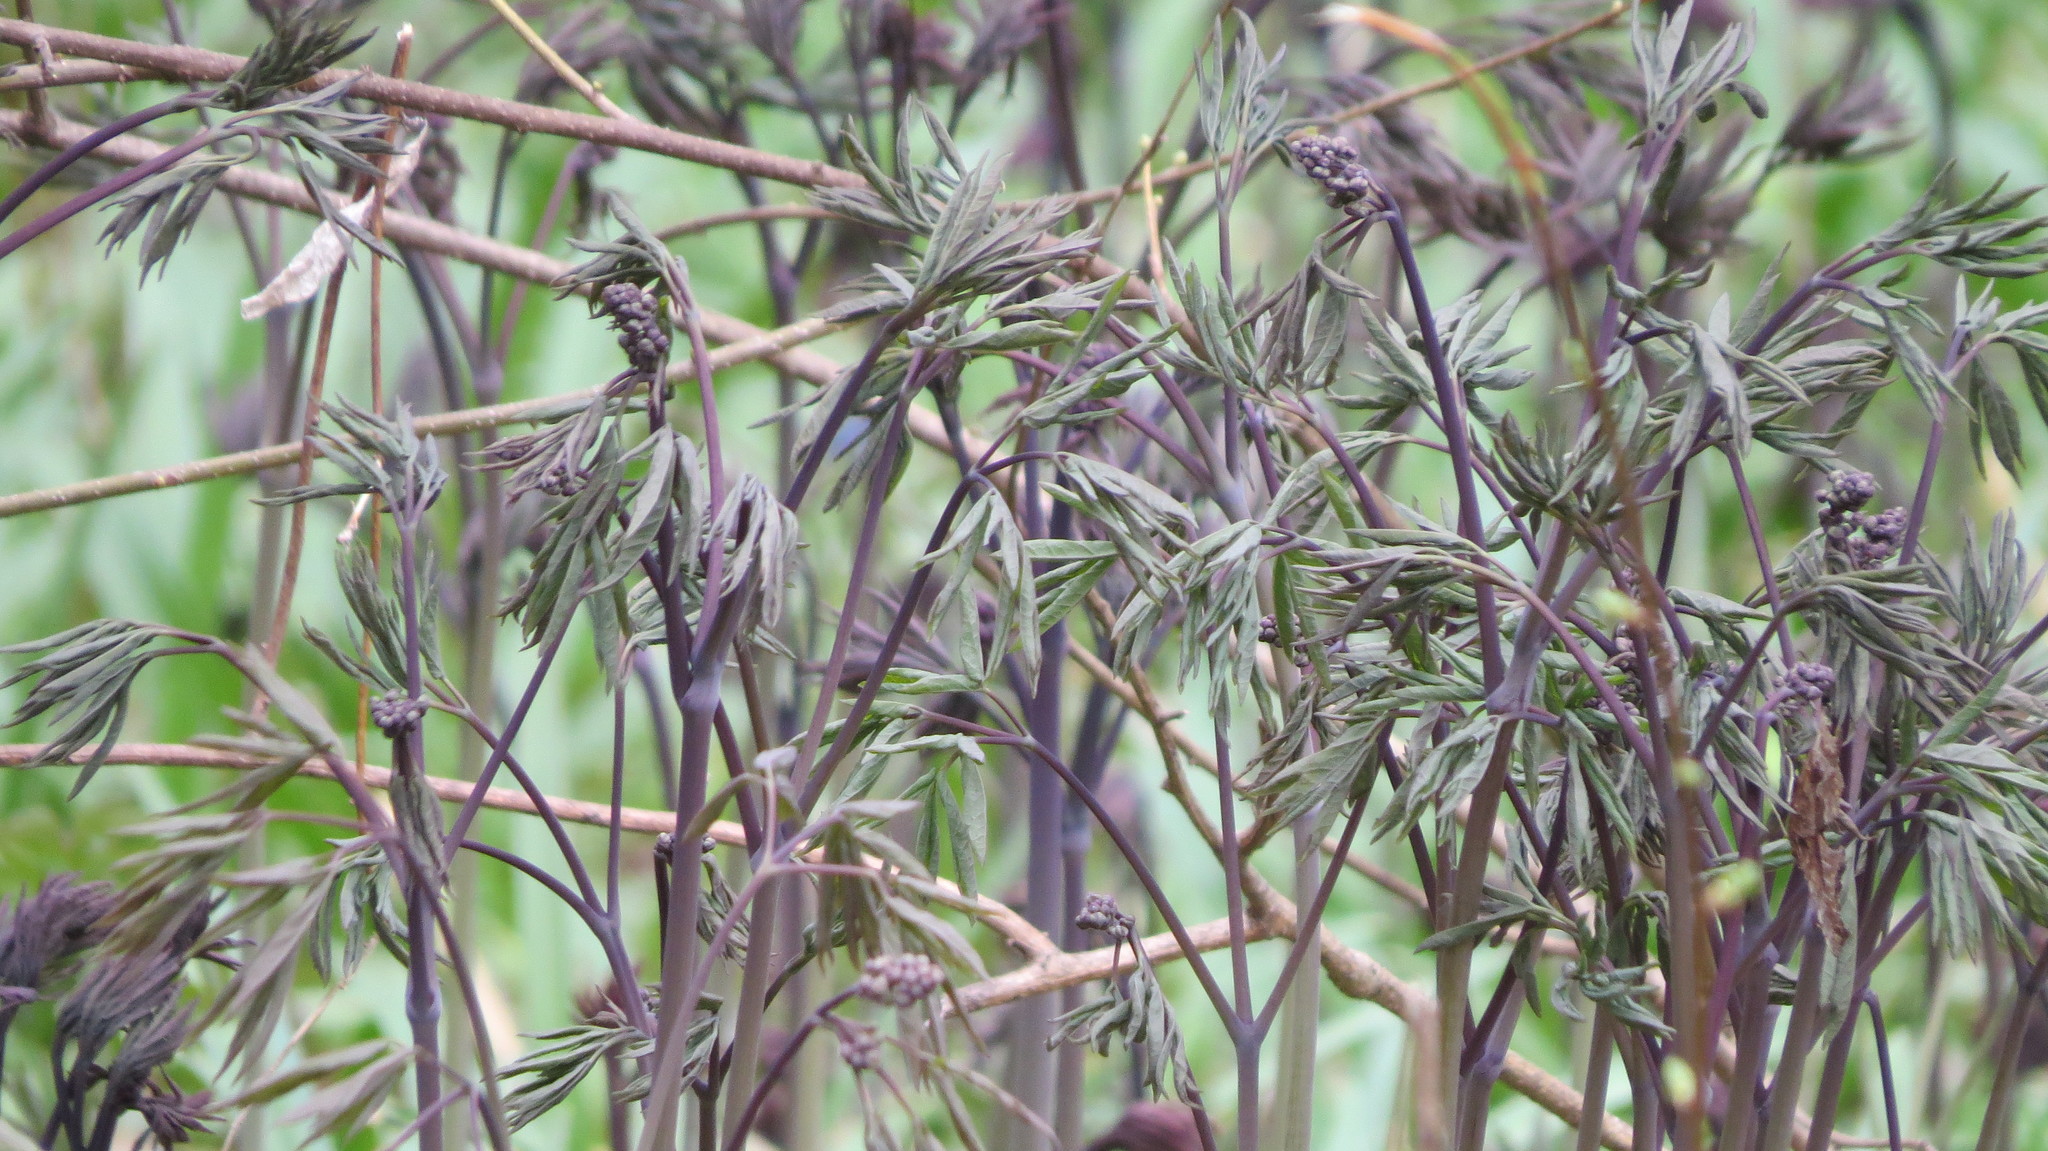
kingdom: Plantae
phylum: Tracheophyta
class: Magnoliopsida
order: Ranunculales
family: Berberidaceae
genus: Caulophyllum
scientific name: Caulophyllum thalictroides
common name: Blue cohosh
